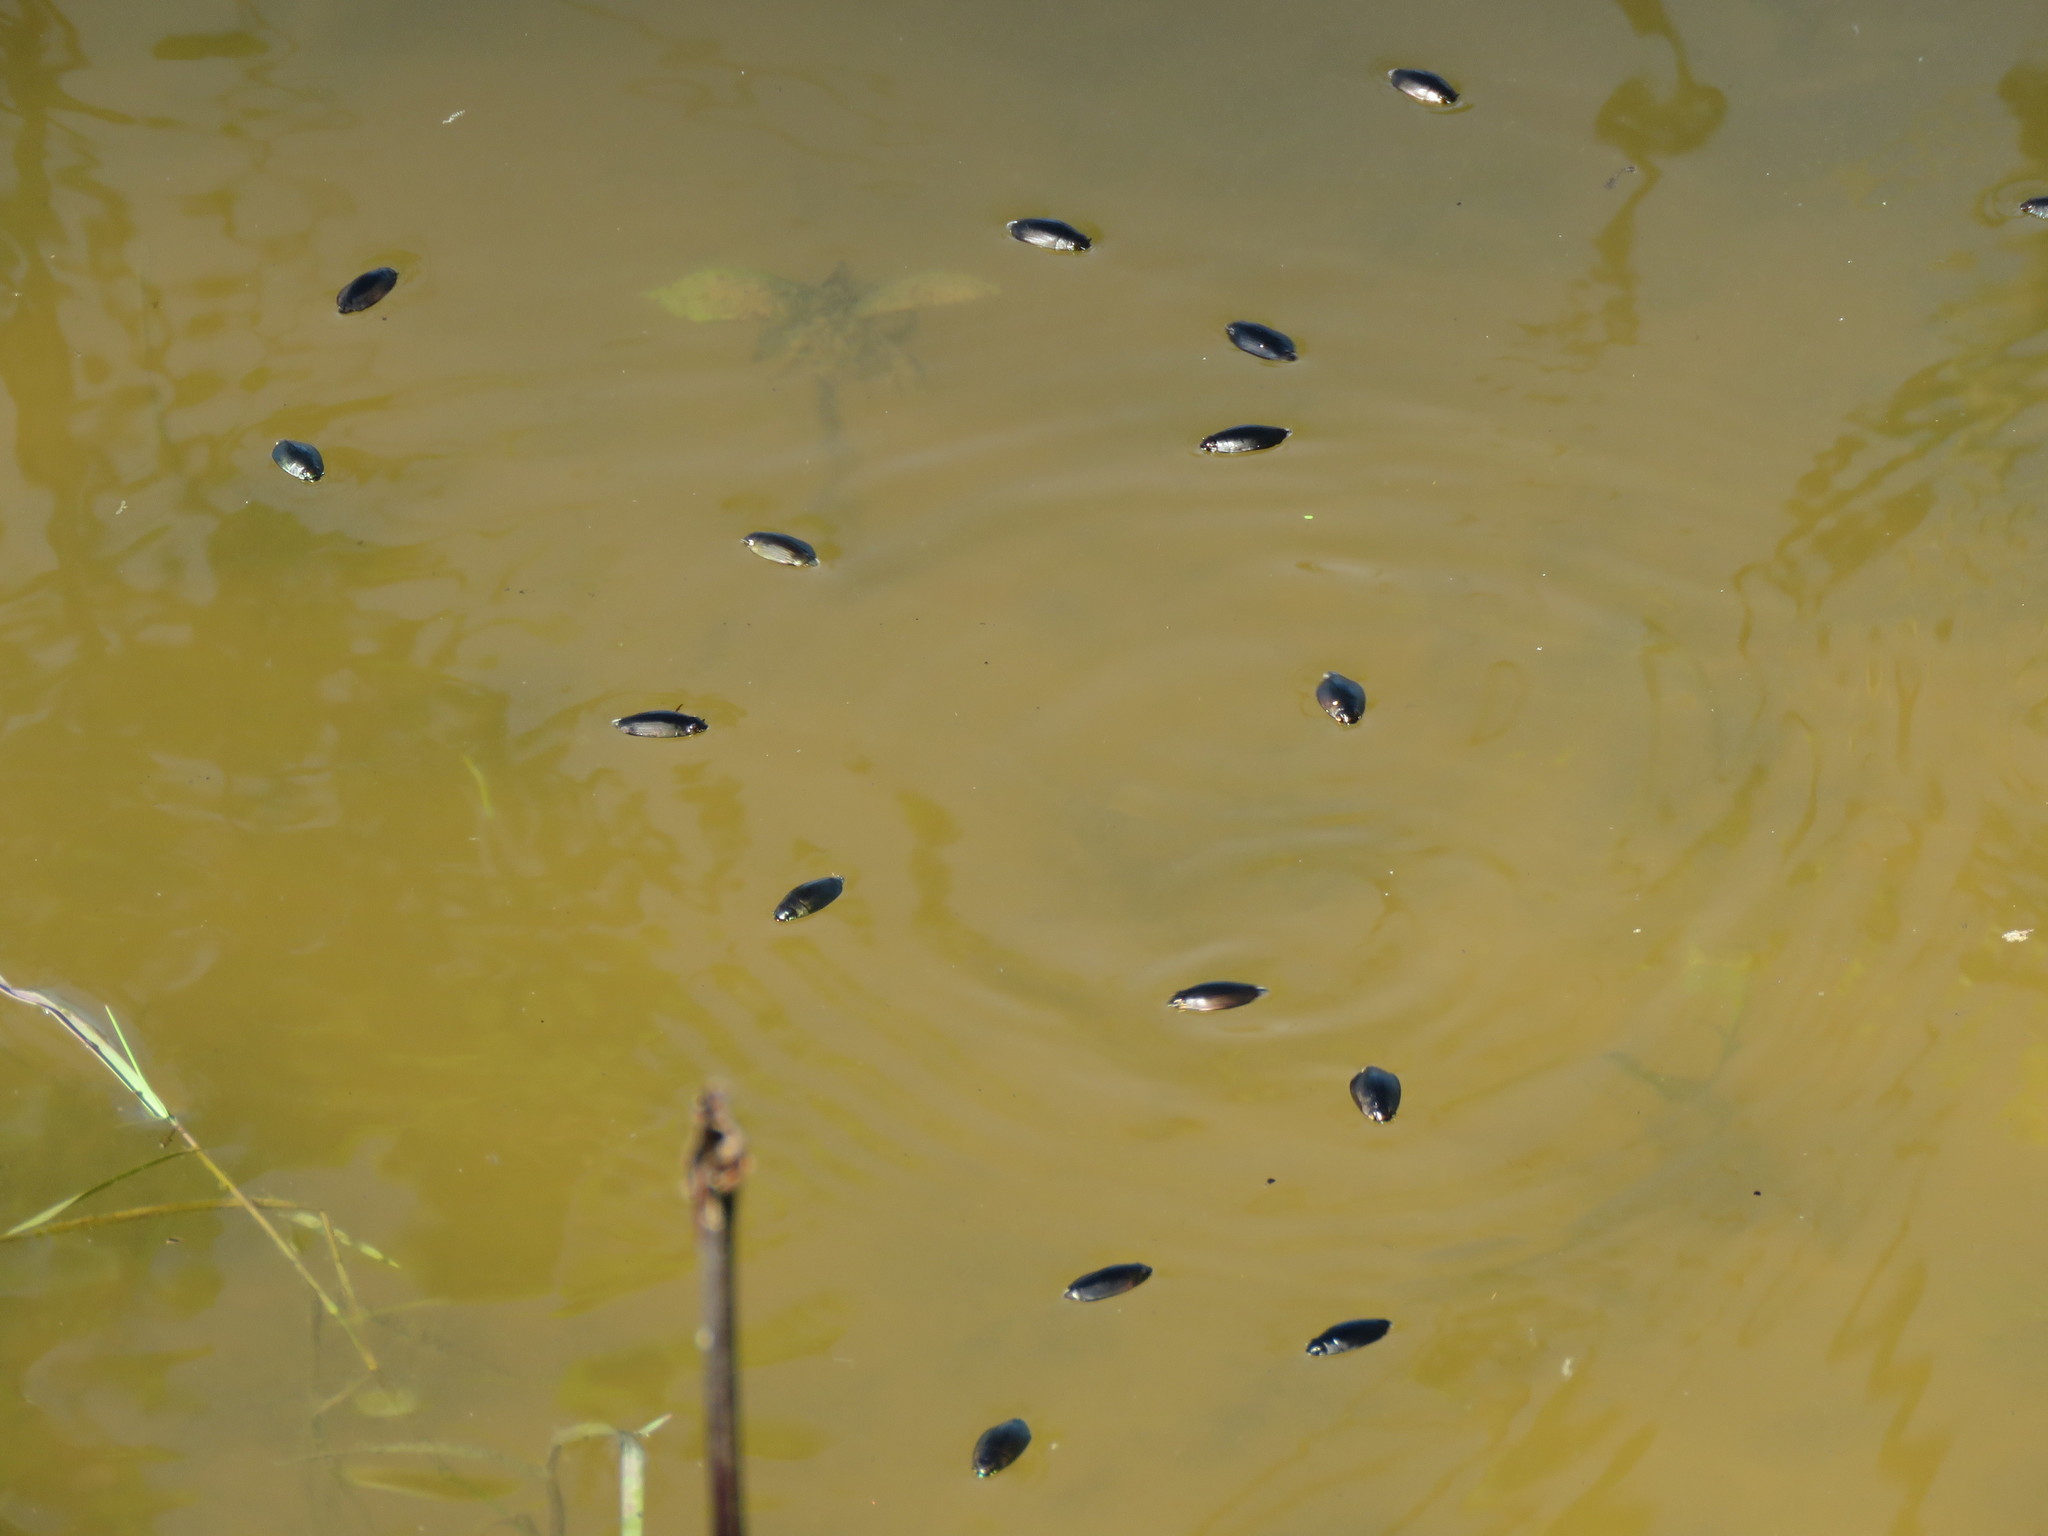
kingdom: Animalia
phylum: Arthropoda
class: Insecta
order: Coleoptera
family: Gyrinidae
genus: Dineutus
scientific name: Dineutus
